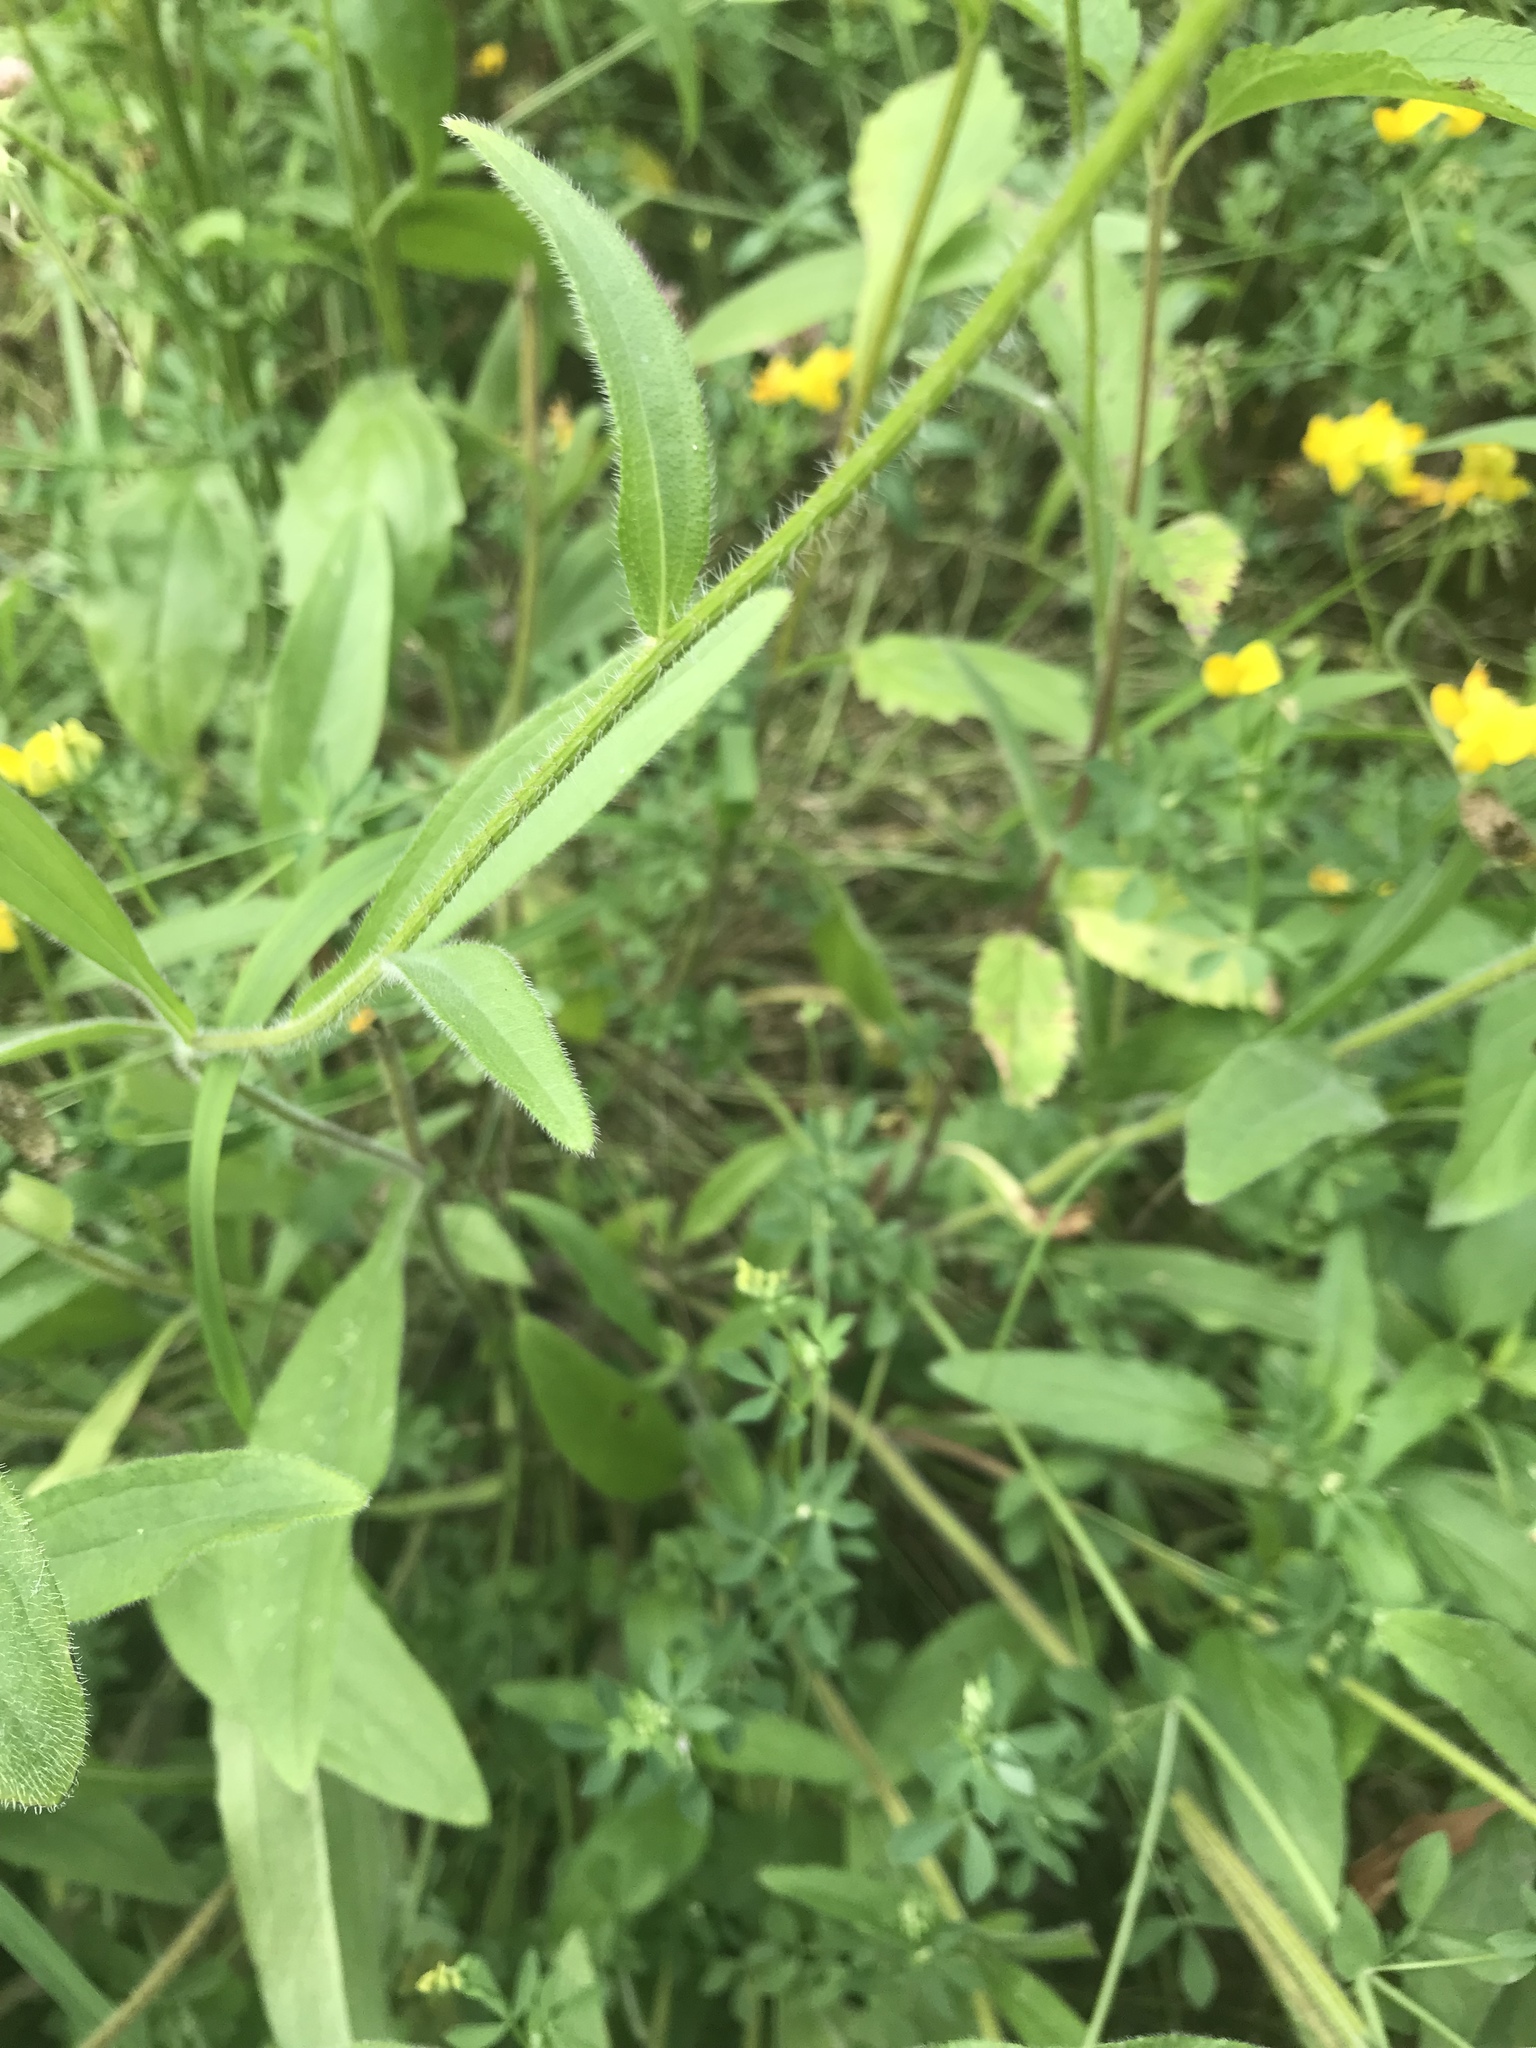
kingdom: Plantae
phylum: Tracheophyta
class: Magnoliopsida
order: Asterales
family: Asteraceae
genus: Rudbeckia
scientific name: Rudbeckia hirta
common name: Black-eyed-susan
